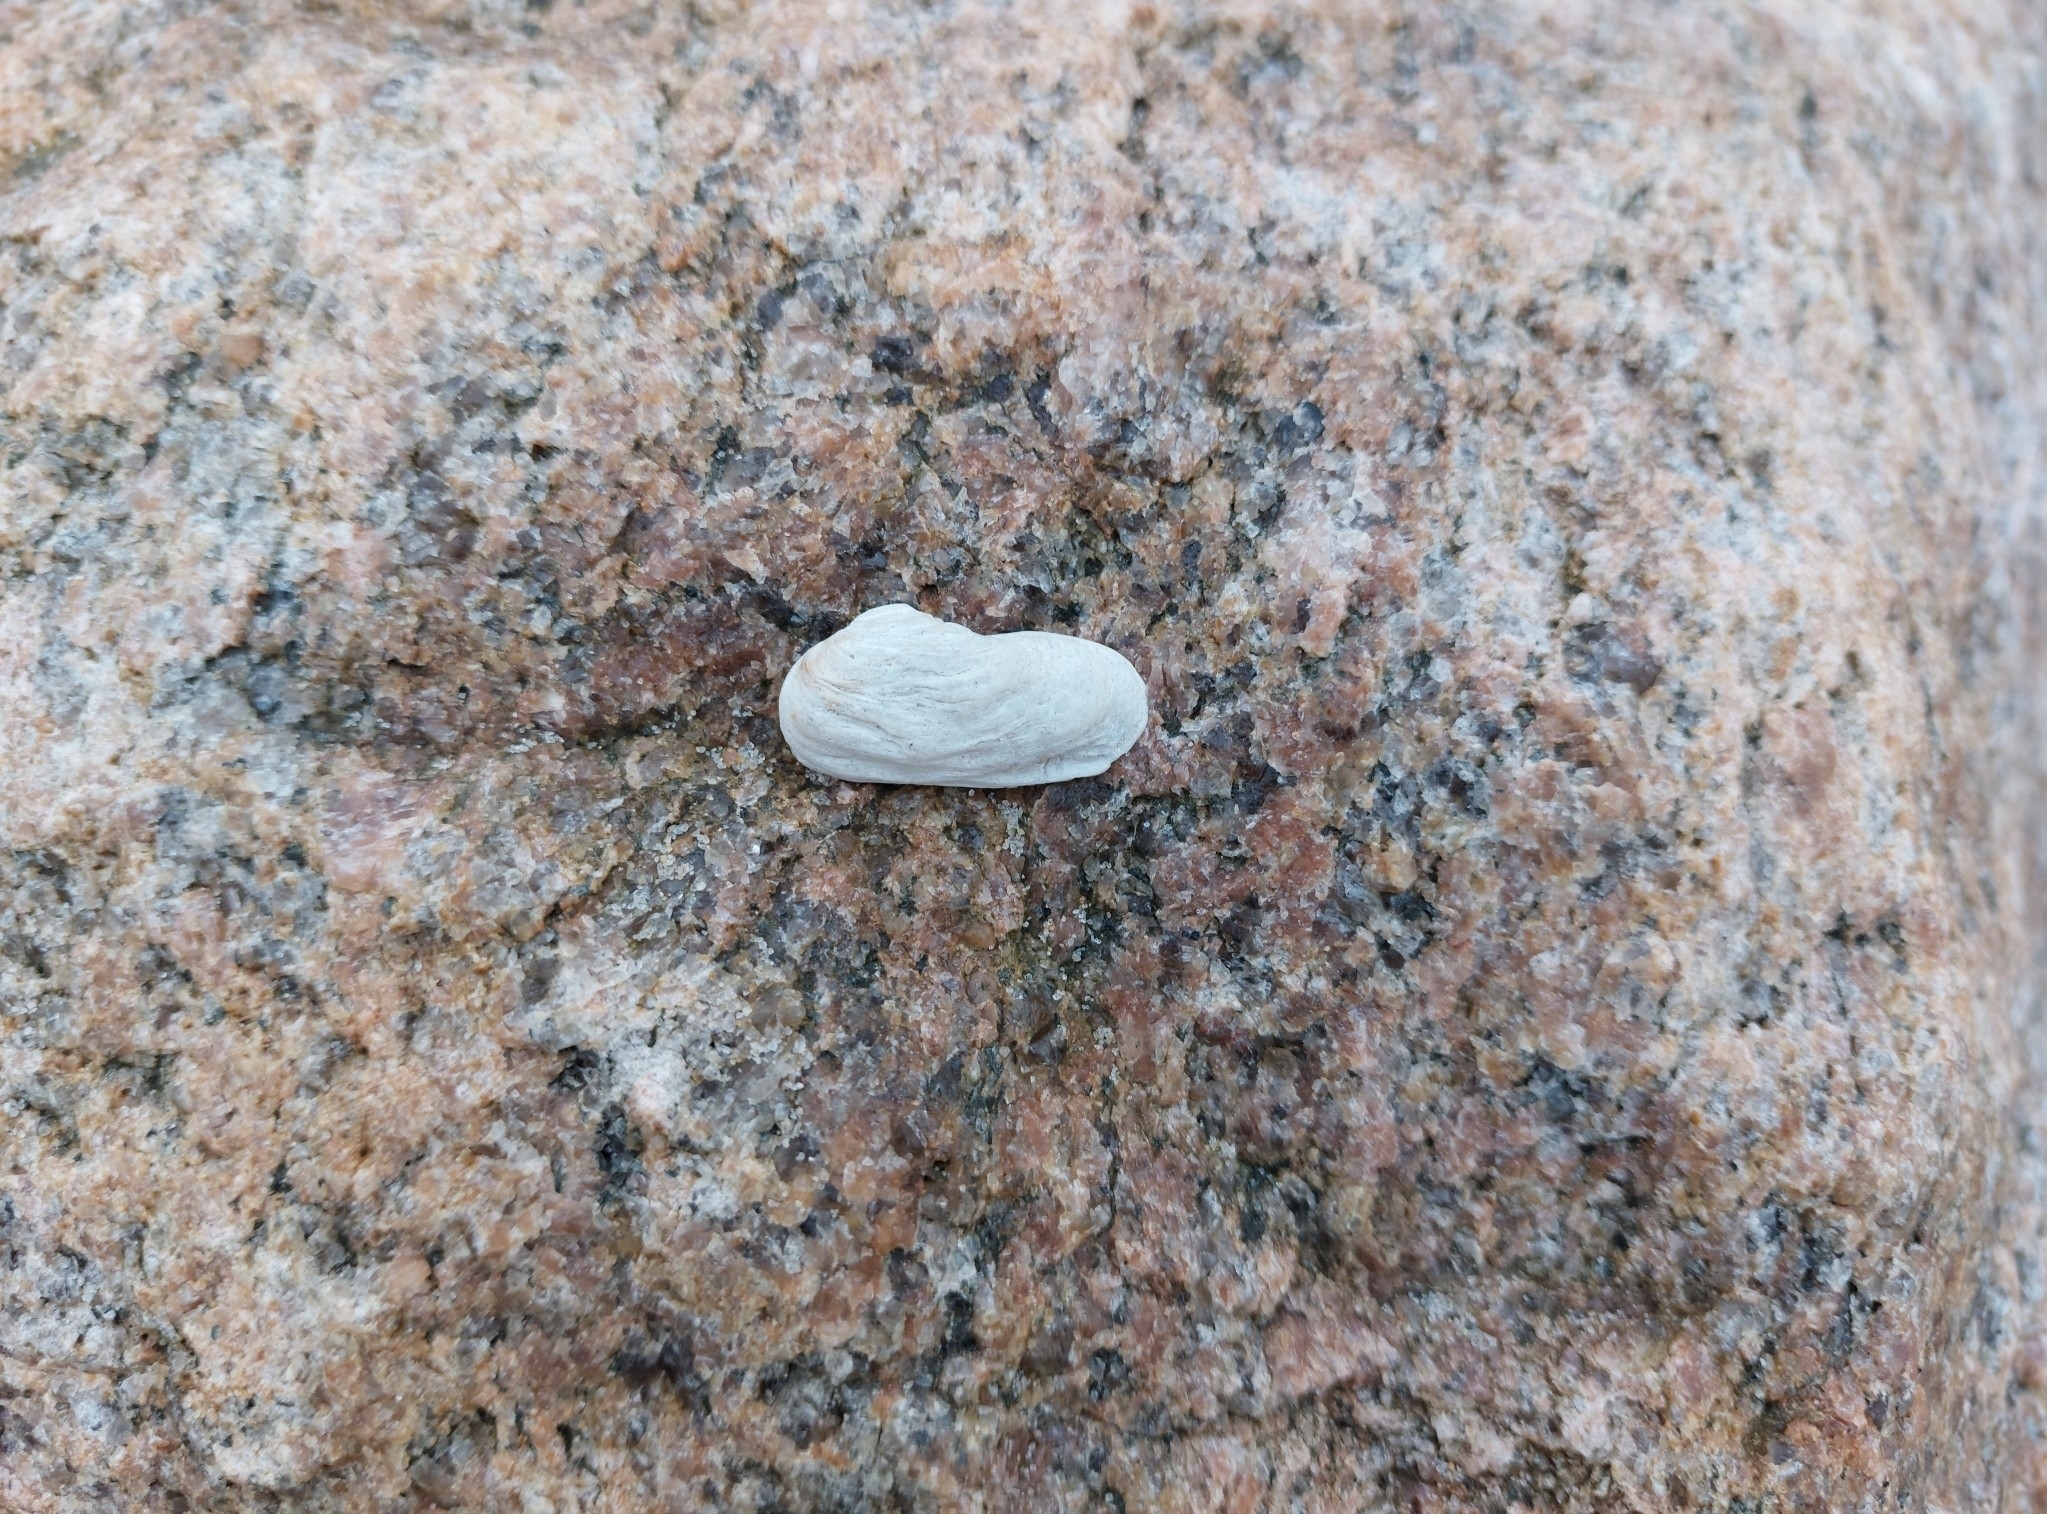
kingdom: Animalia
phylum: Mollusca
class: Bivalvia
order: Adapedonta
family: Hiatellidae
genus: Hiatella
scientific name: Hiatella arctica
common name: Arctic hiatella
